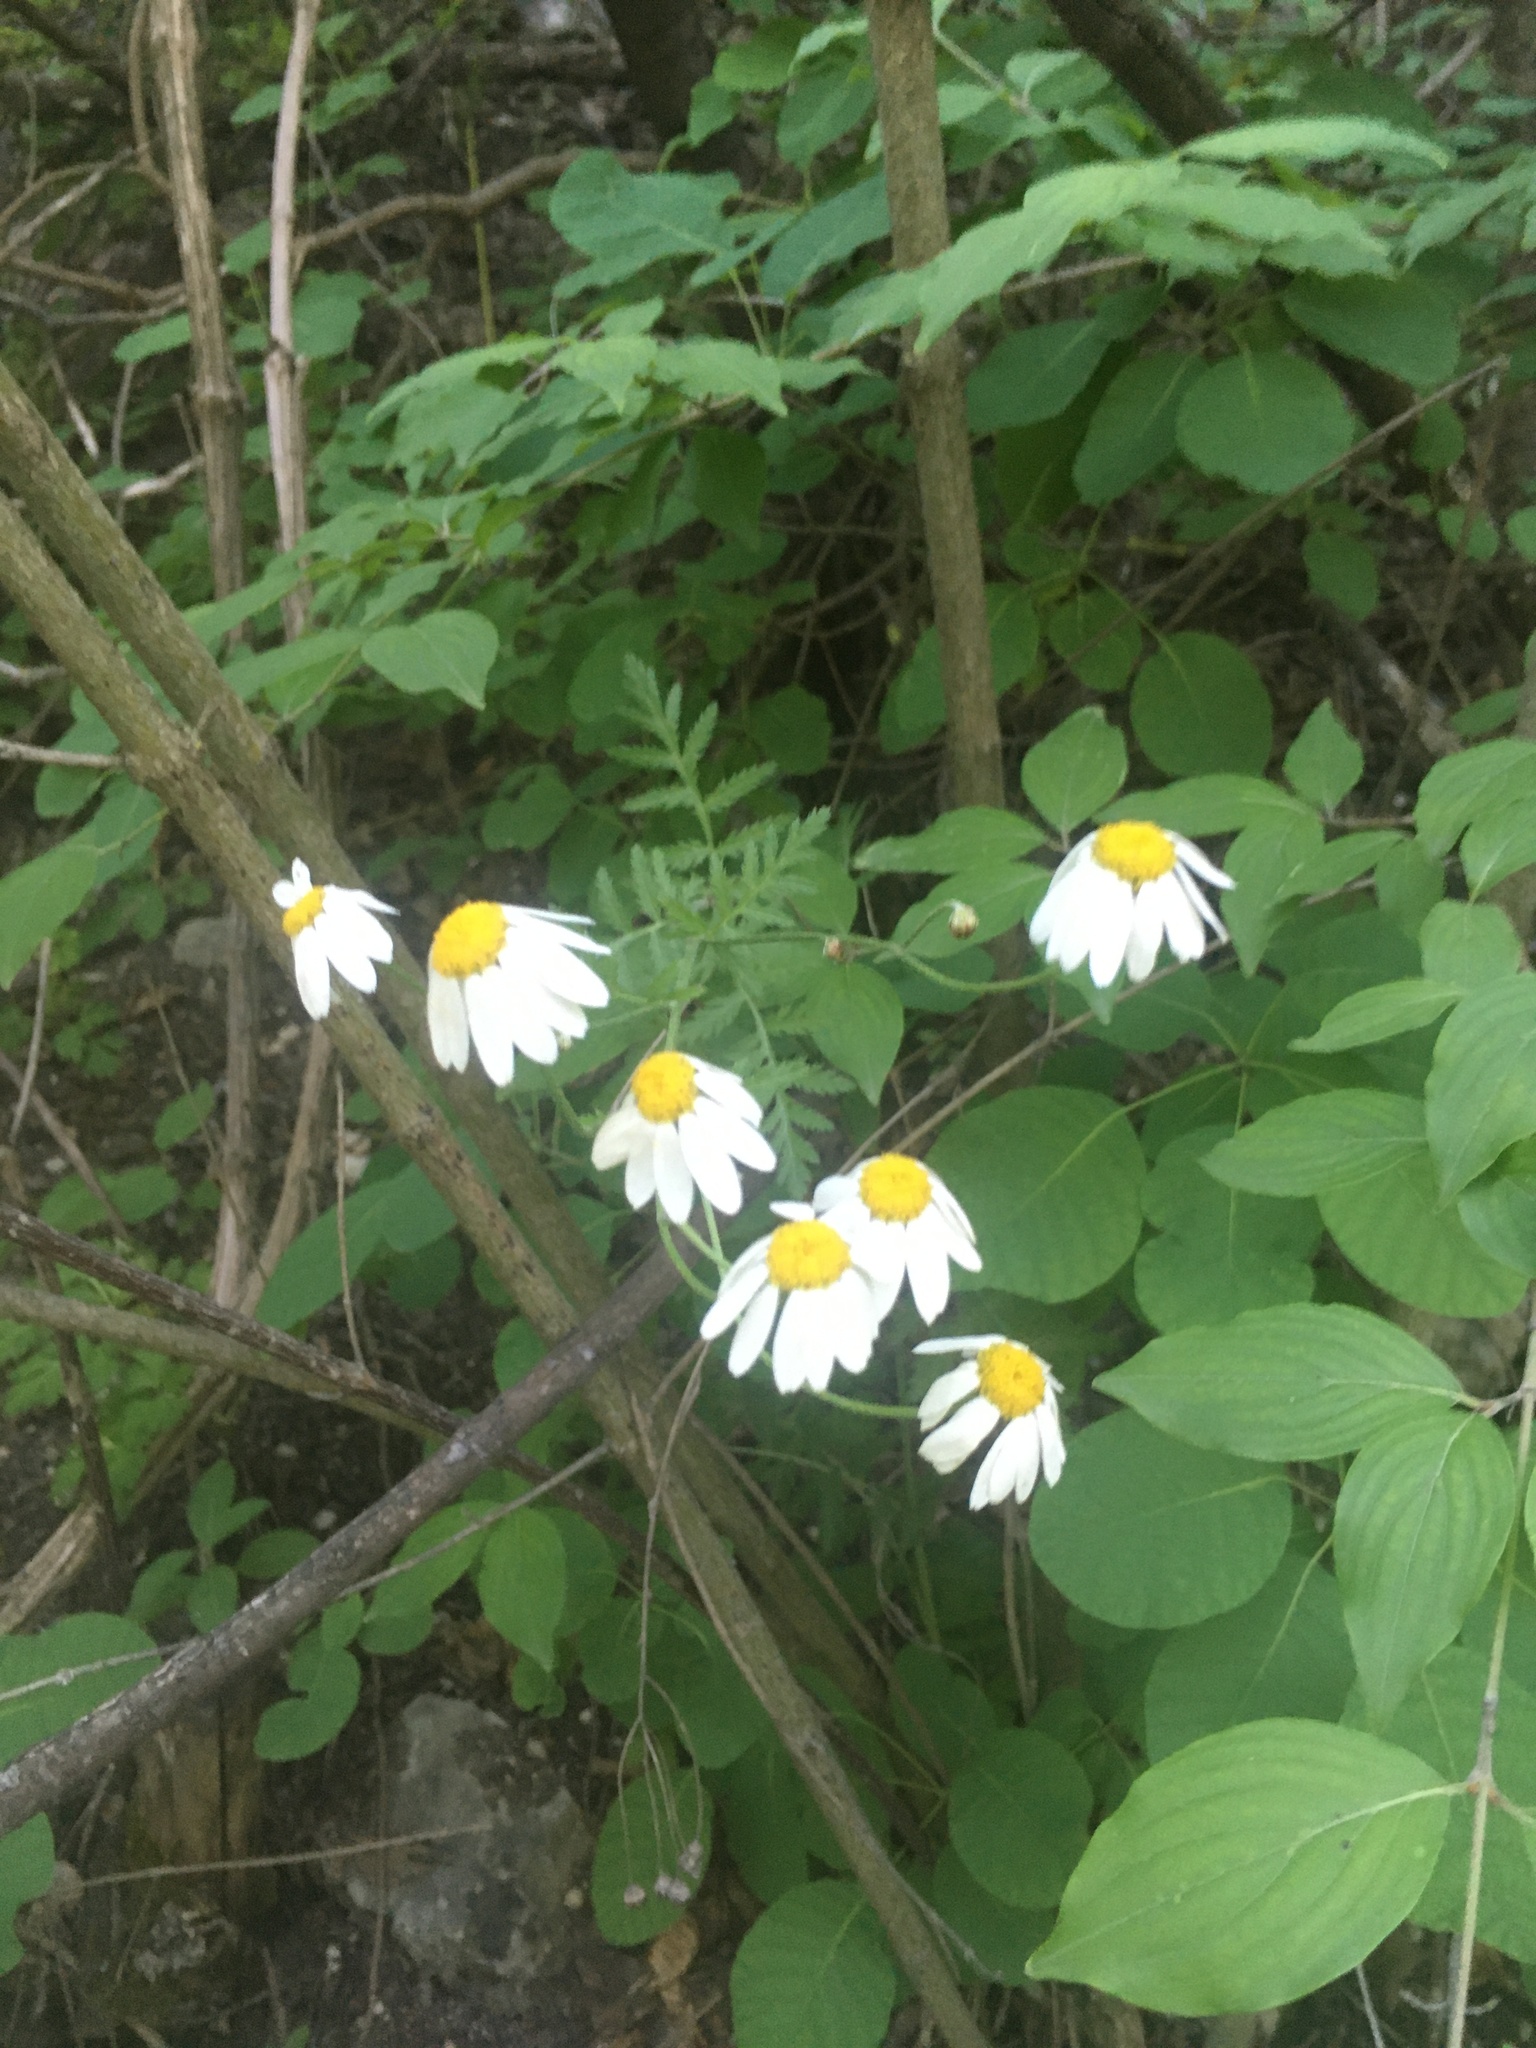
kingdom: Plantae
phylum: Tracheophyta
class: Magnoliopsida
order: Asterales
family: Asteraceae
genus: Tanacetum
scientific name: Tanacetum corymbosum
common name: Scentless feverfew
